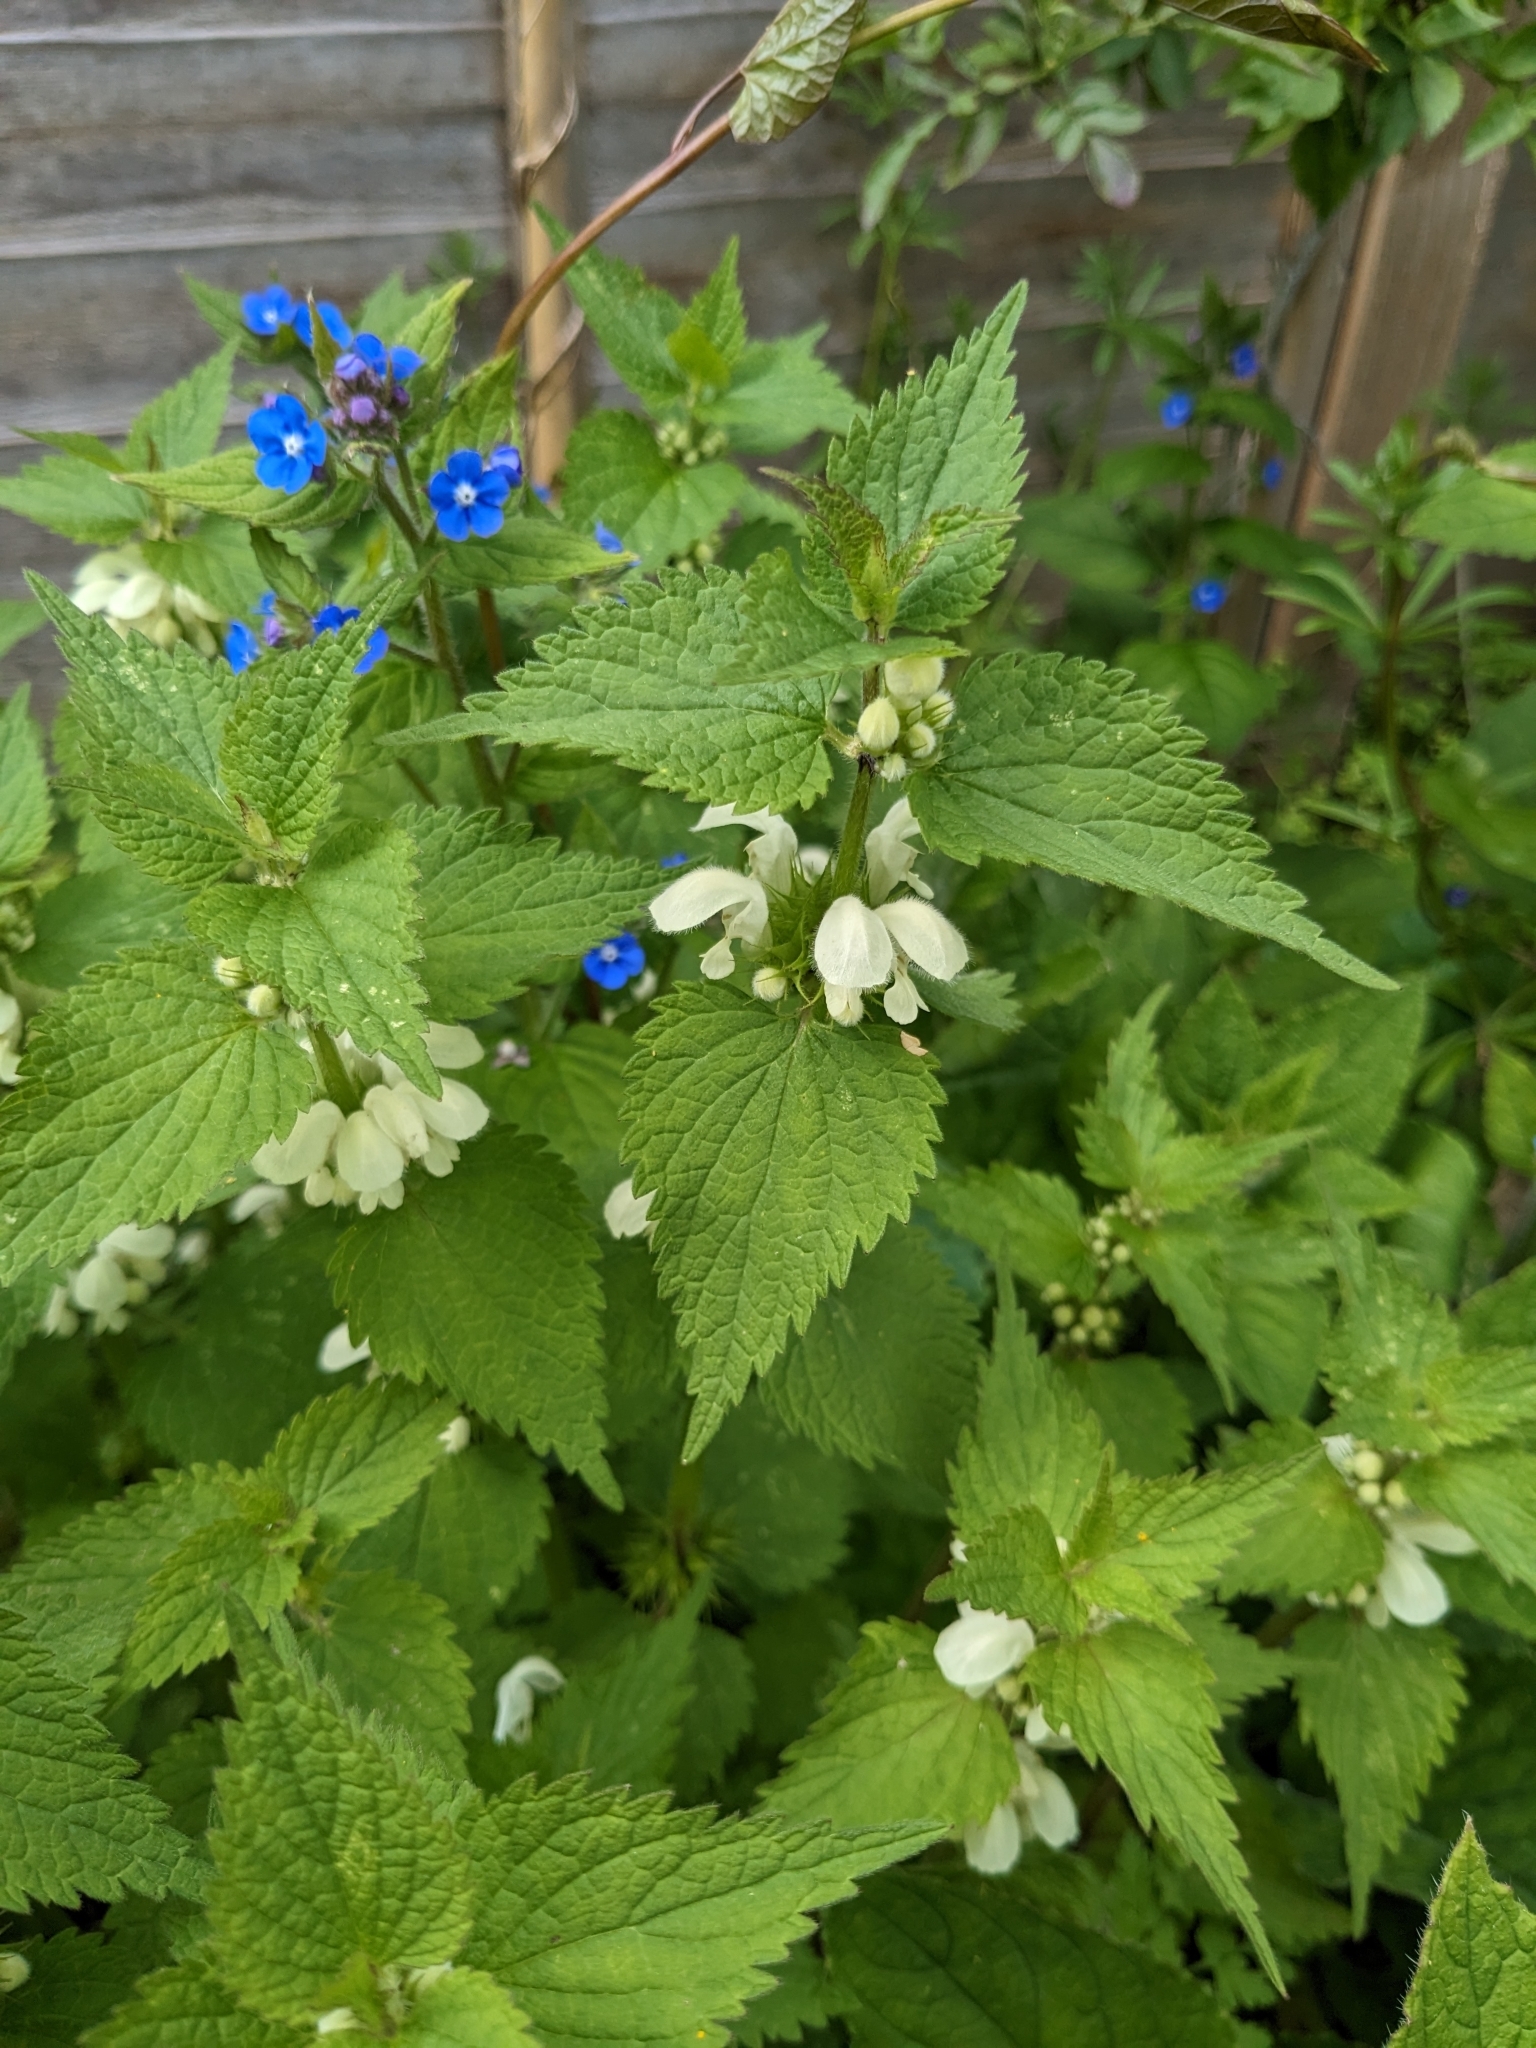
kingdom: Plantae
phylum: Tracheophyta
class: Magnoliopsida
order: Lamiales
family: Lamiaceae
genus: Lamium
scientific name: Lamium album
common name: White dead-nettle
